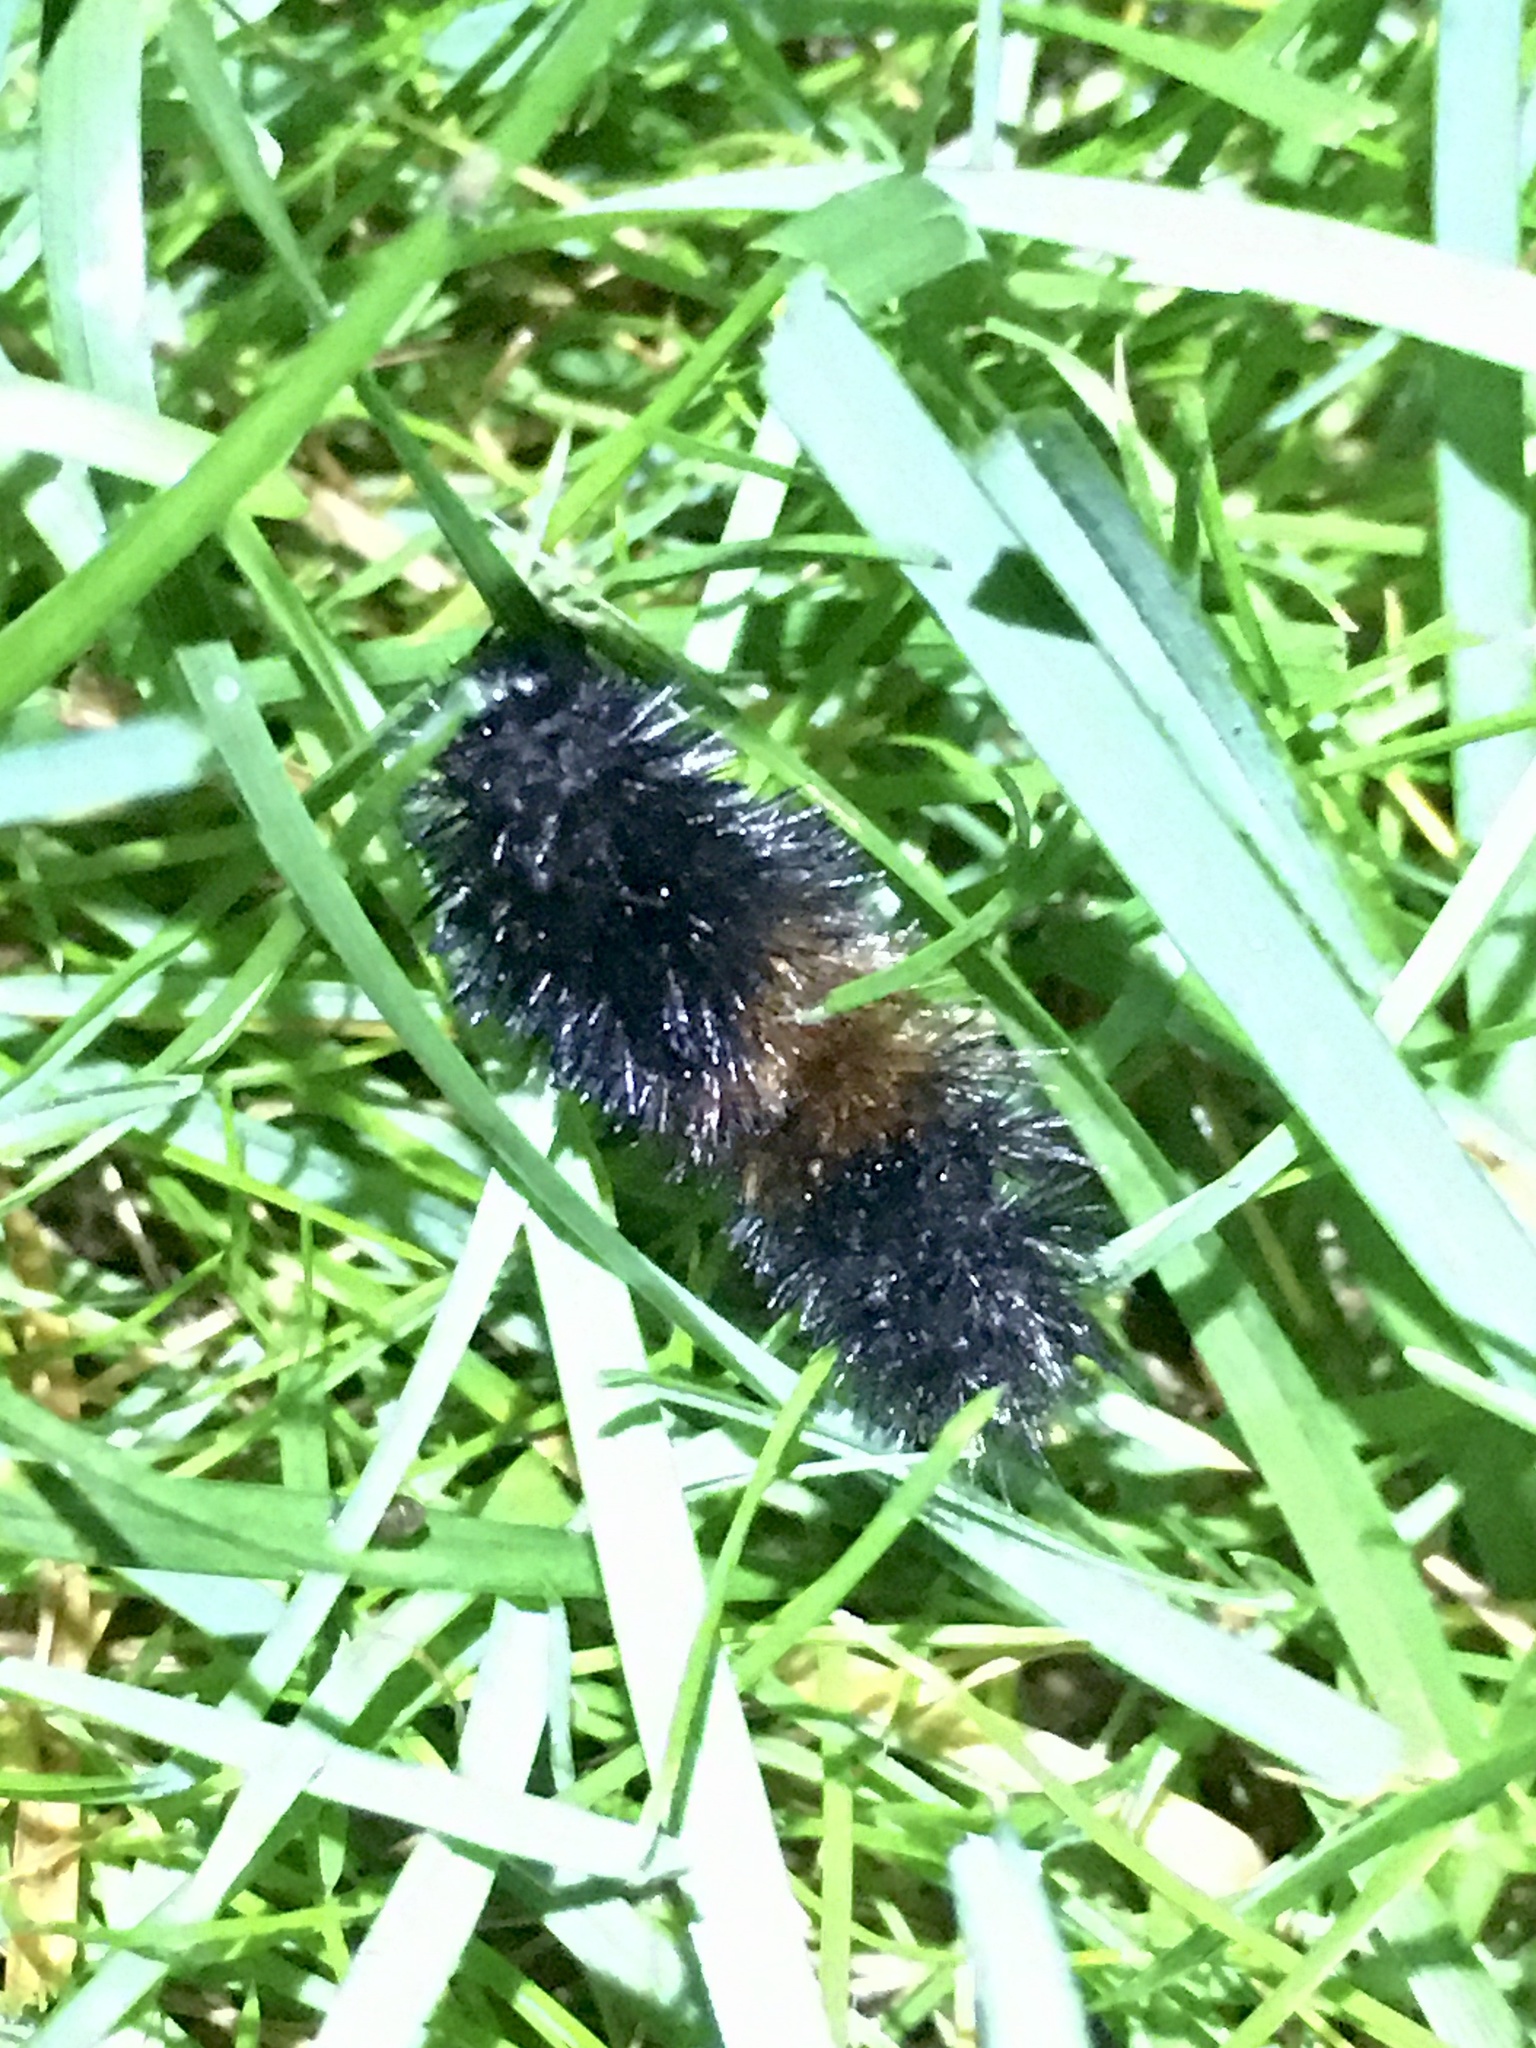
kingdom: Animalia
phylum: Arthropoda
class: Insecta
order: Lepidoptera
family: Erebidae
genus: Pyrrharctia
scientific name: Pyrrharctia isabella
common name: Isabella tiger moth
